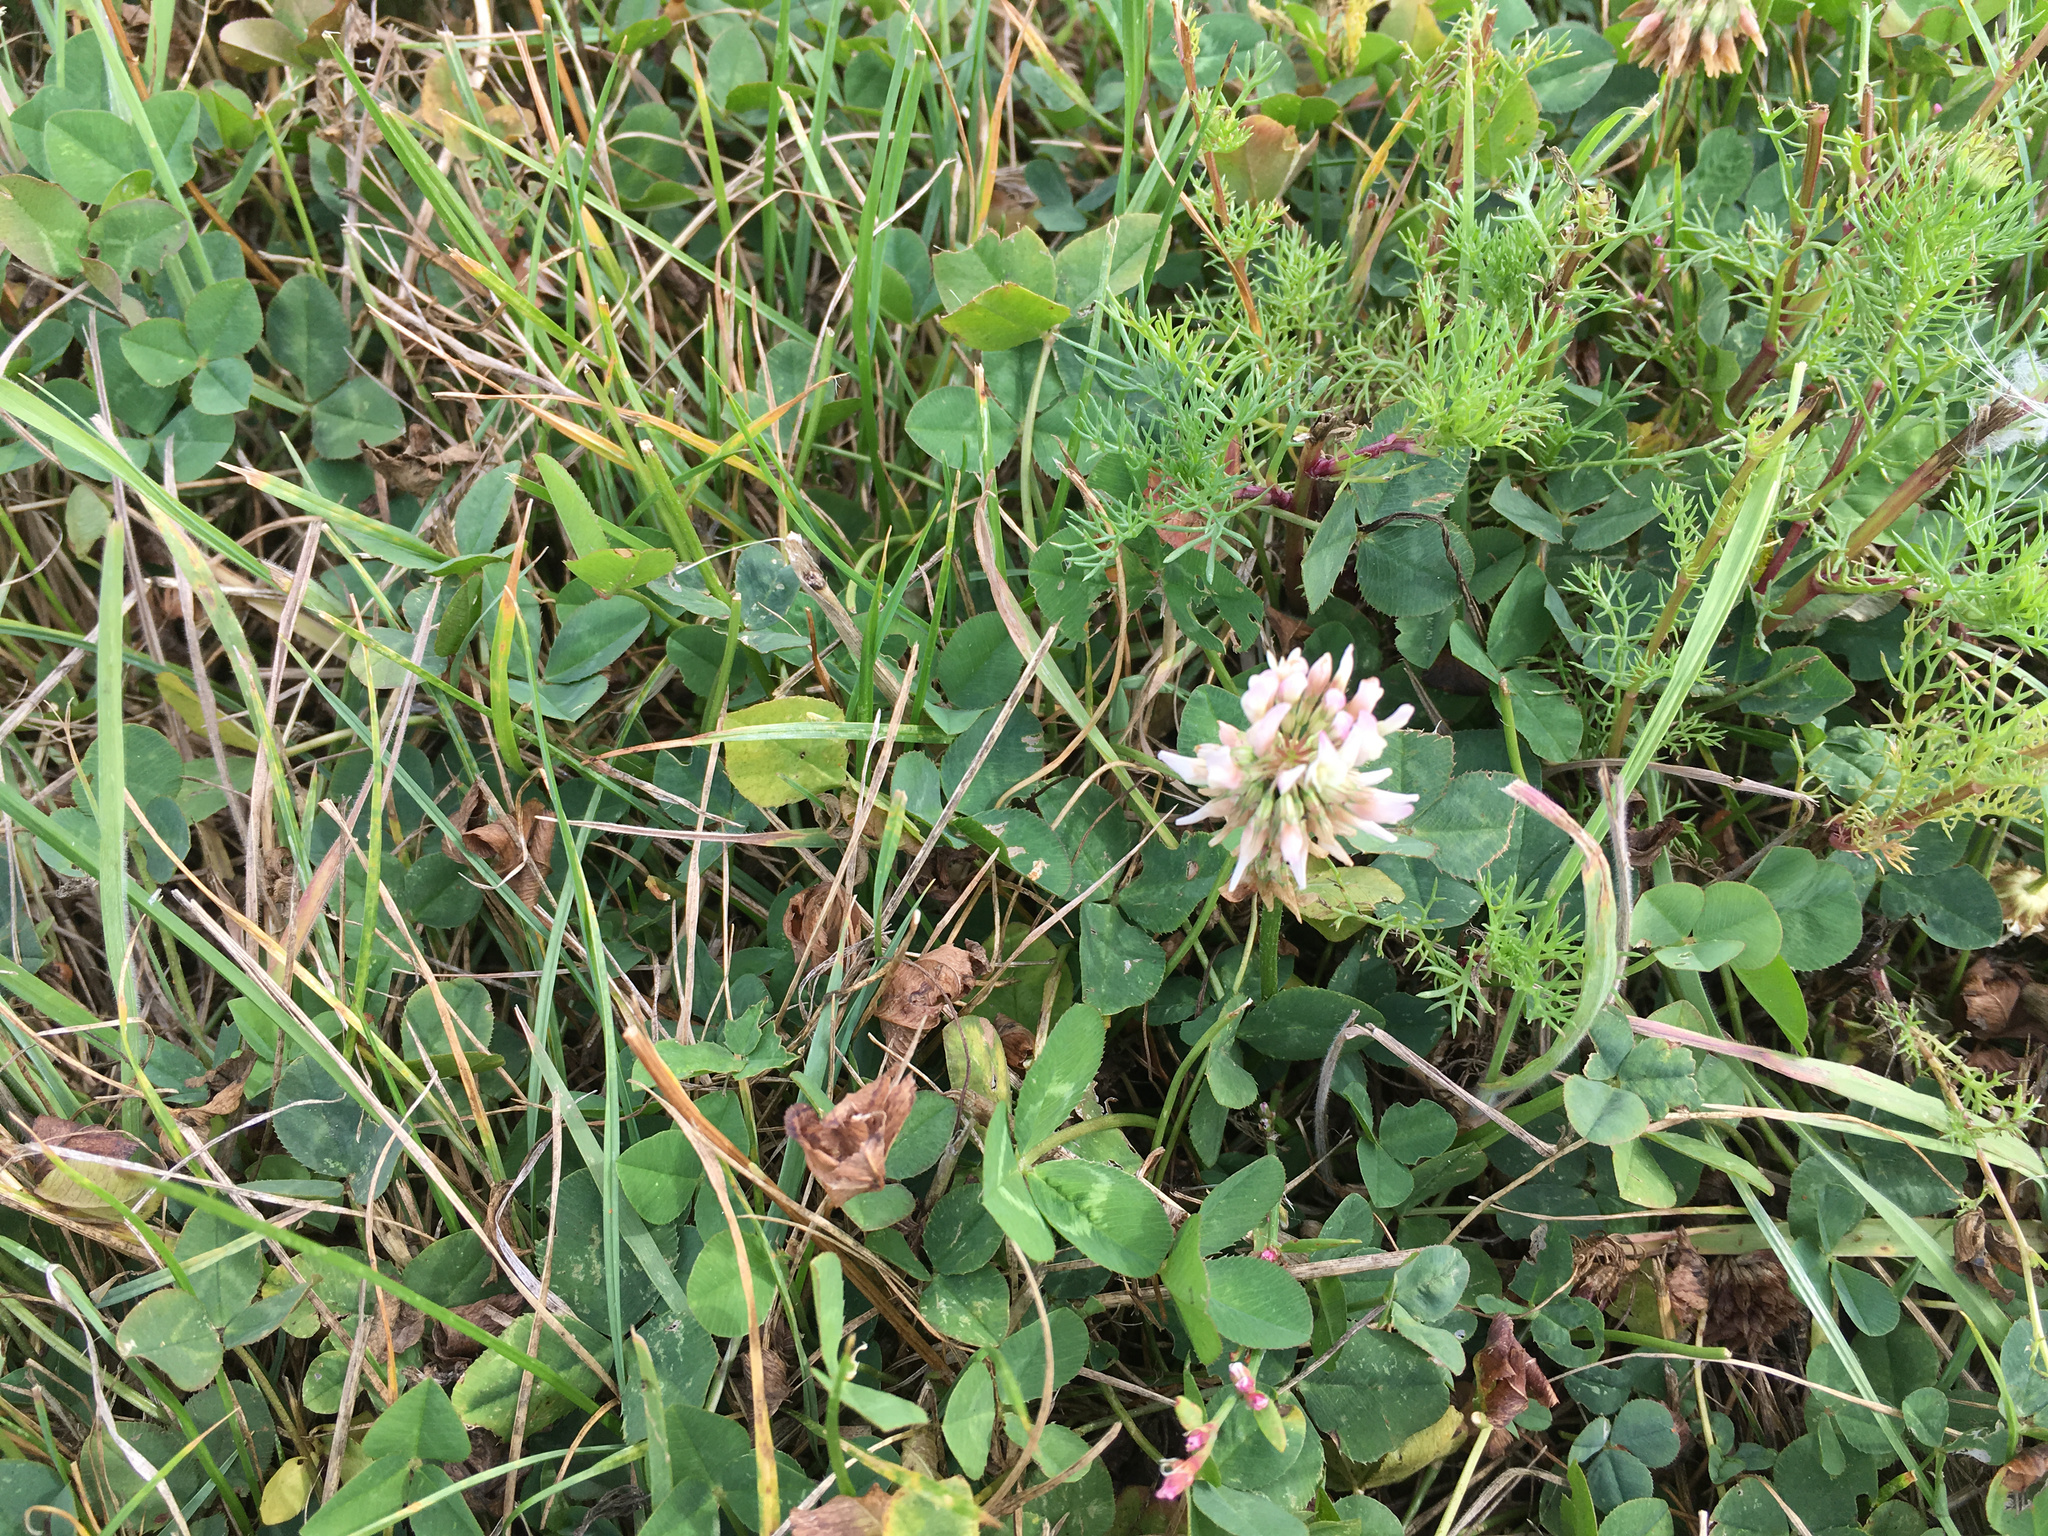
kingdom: Plantae
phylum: Tracheophyta
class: Magnoliopsida
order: Fabales
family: Fabaceae
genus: Trifolium
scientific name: Trifolium repens
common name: White clover
